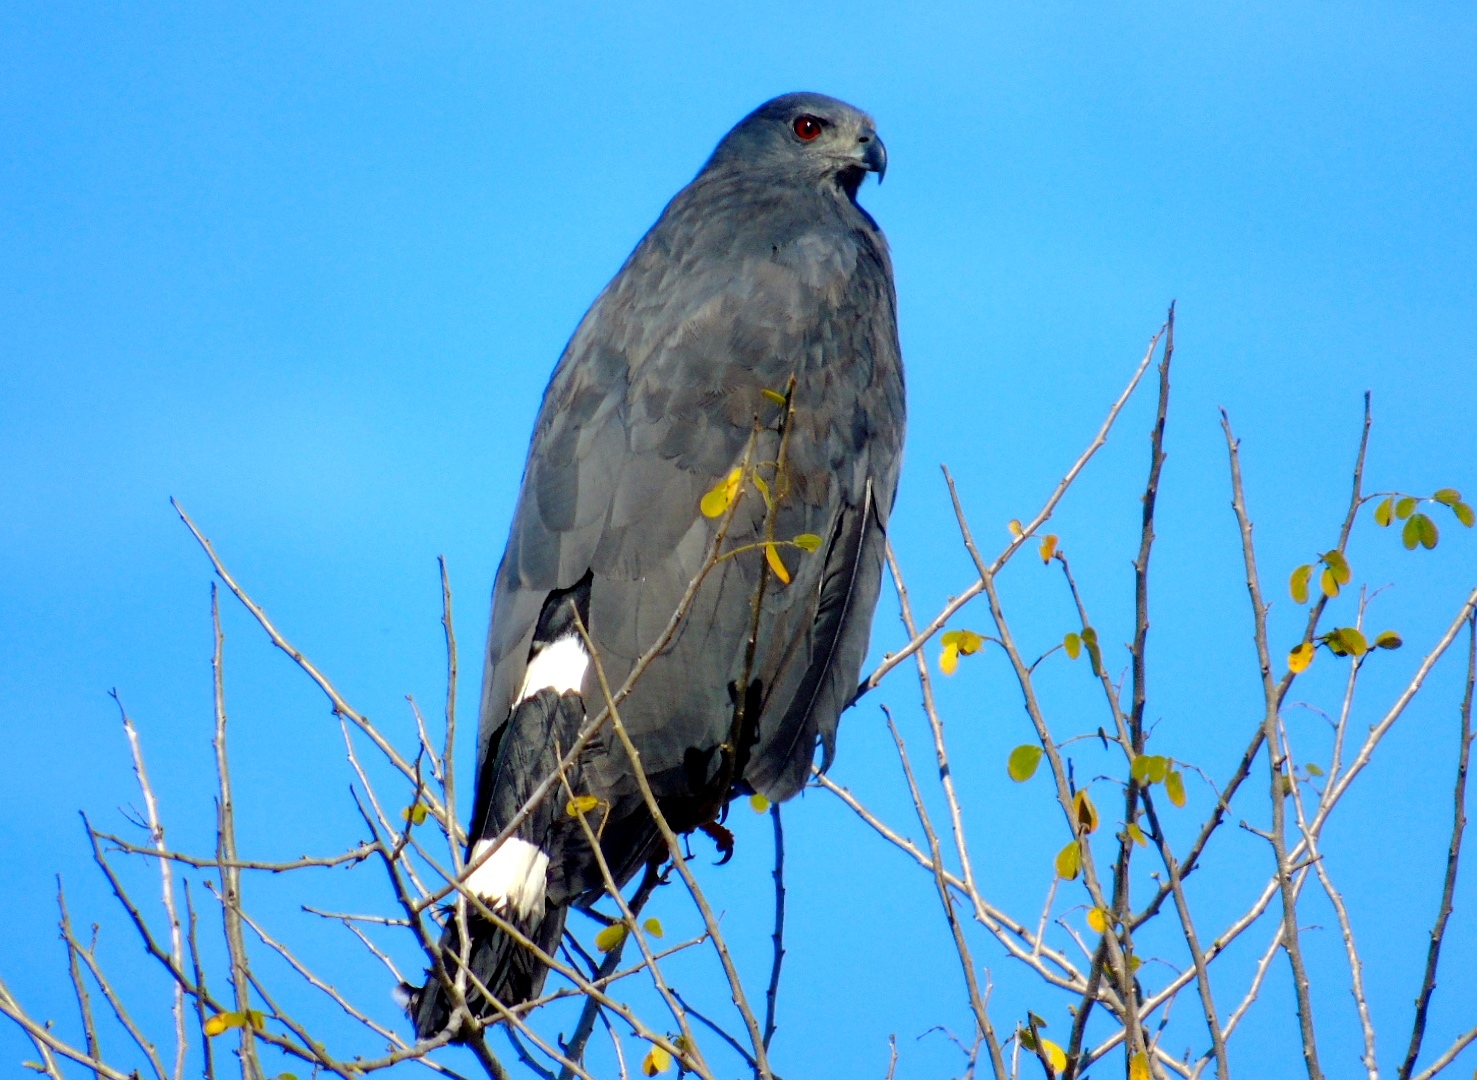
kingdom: Animalia
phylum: Chordata
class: Aves
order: Accipitriformes
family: Accipitridae
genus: Geranospiza
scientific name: Geranospiza caerulescens
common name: Crane hawk
